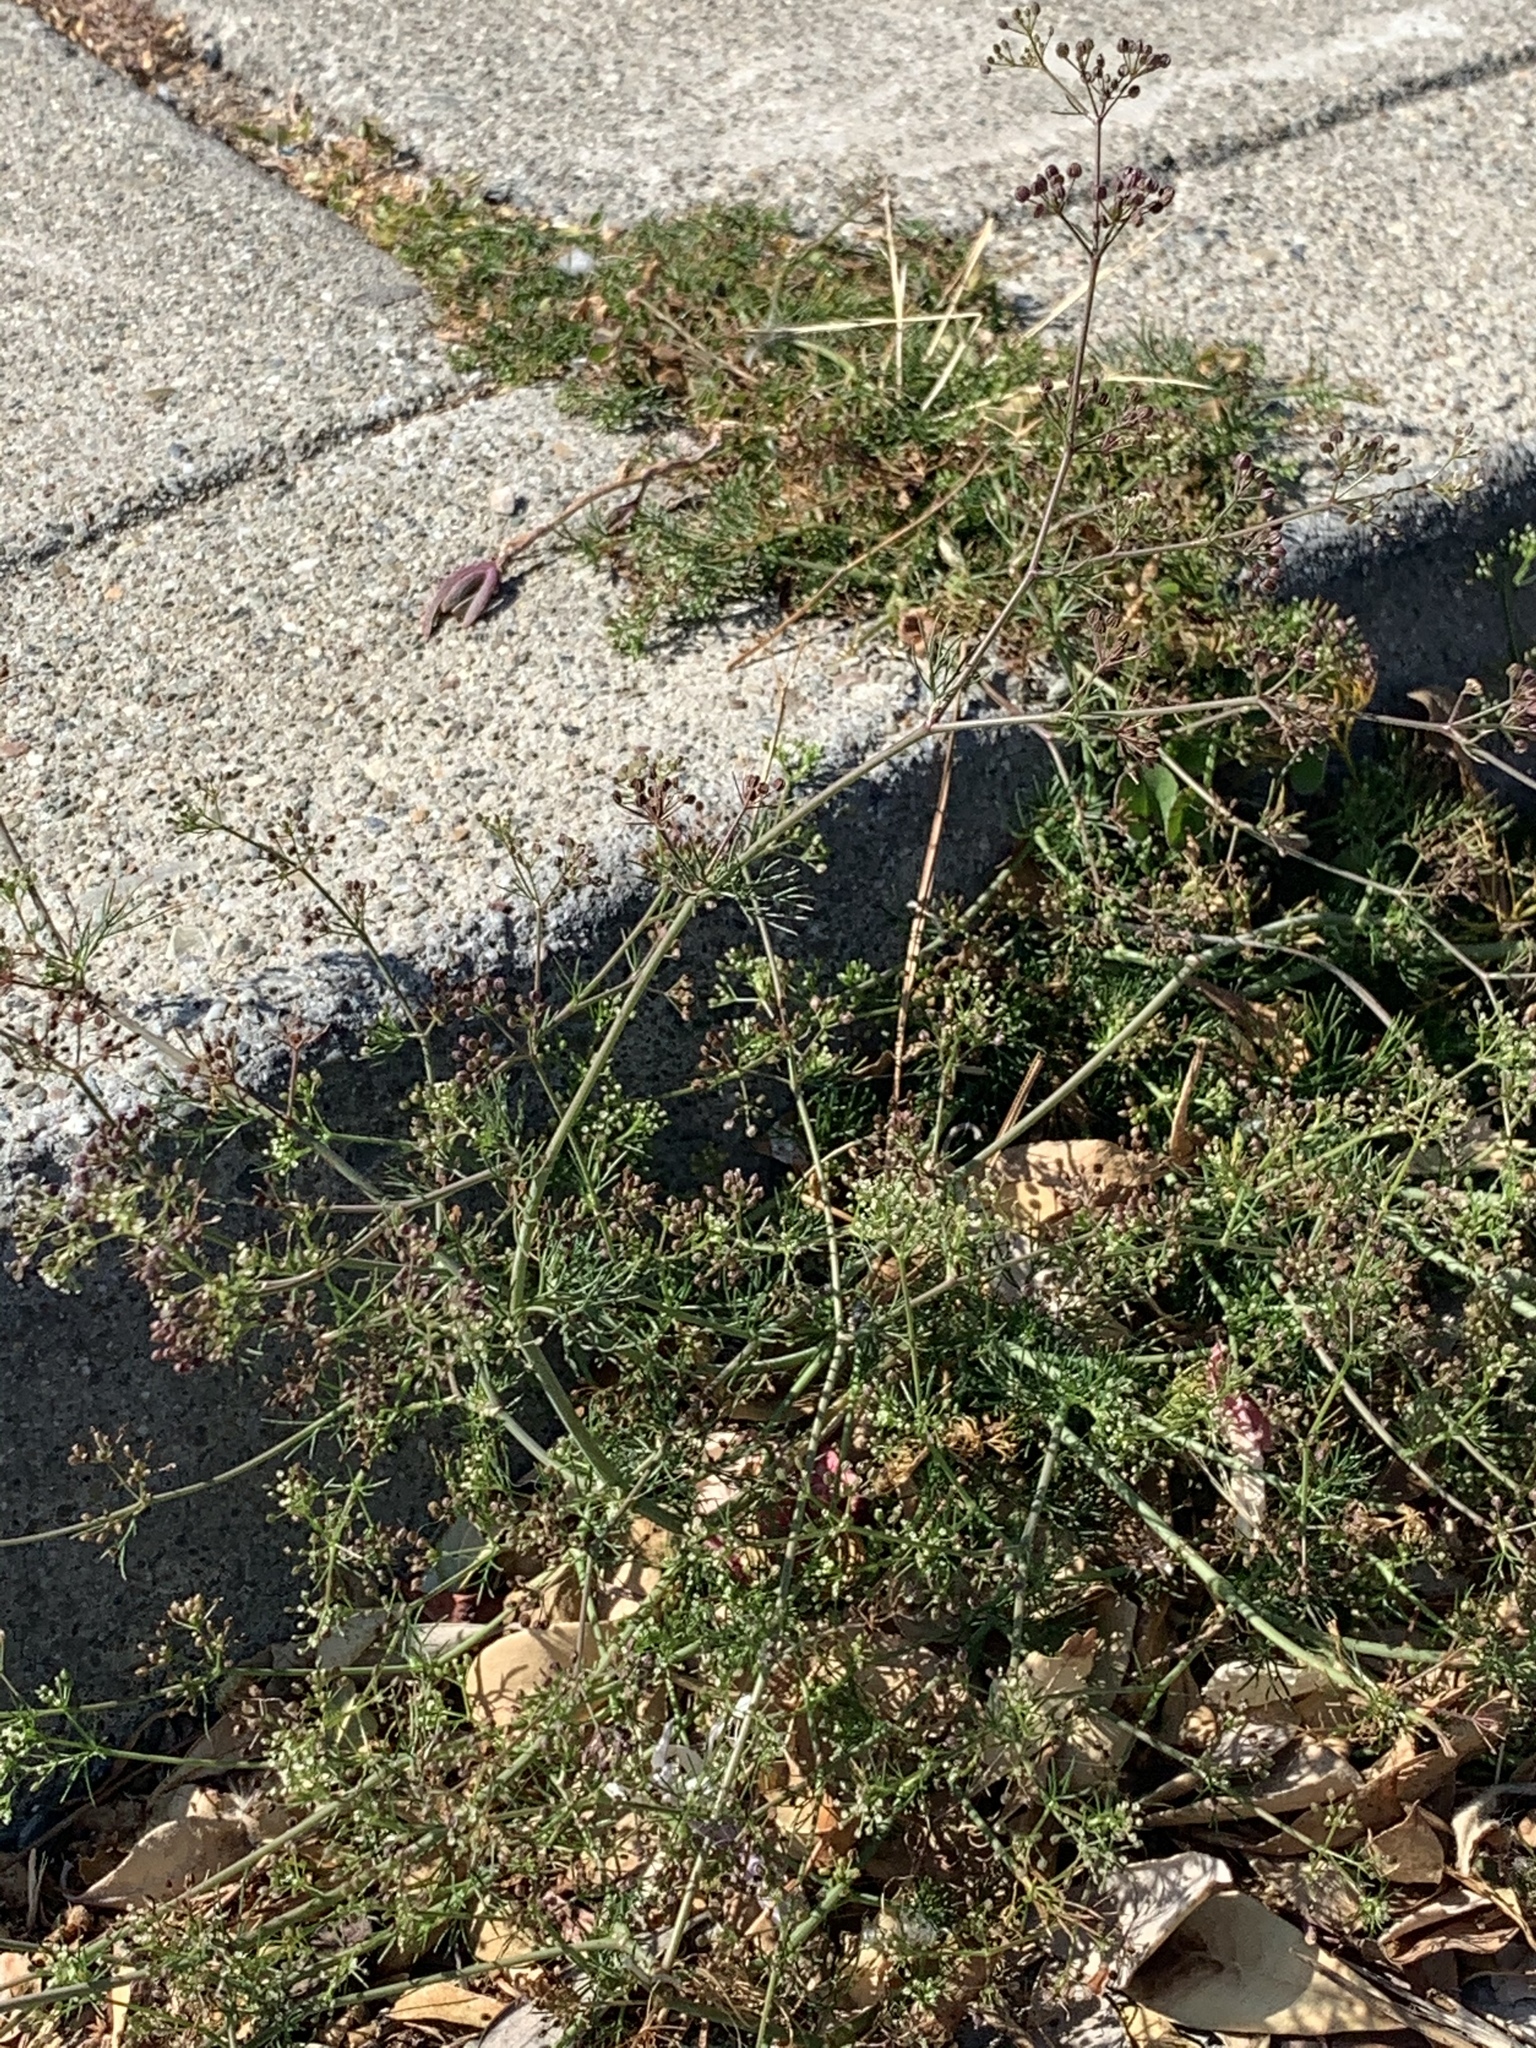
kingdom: Plantae
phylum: Tracheophyta
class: Magnoliopsida
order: Apiales
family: Apiaceae
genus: Foeniculum
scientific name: Foeniculum vulgare
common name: Fennel
